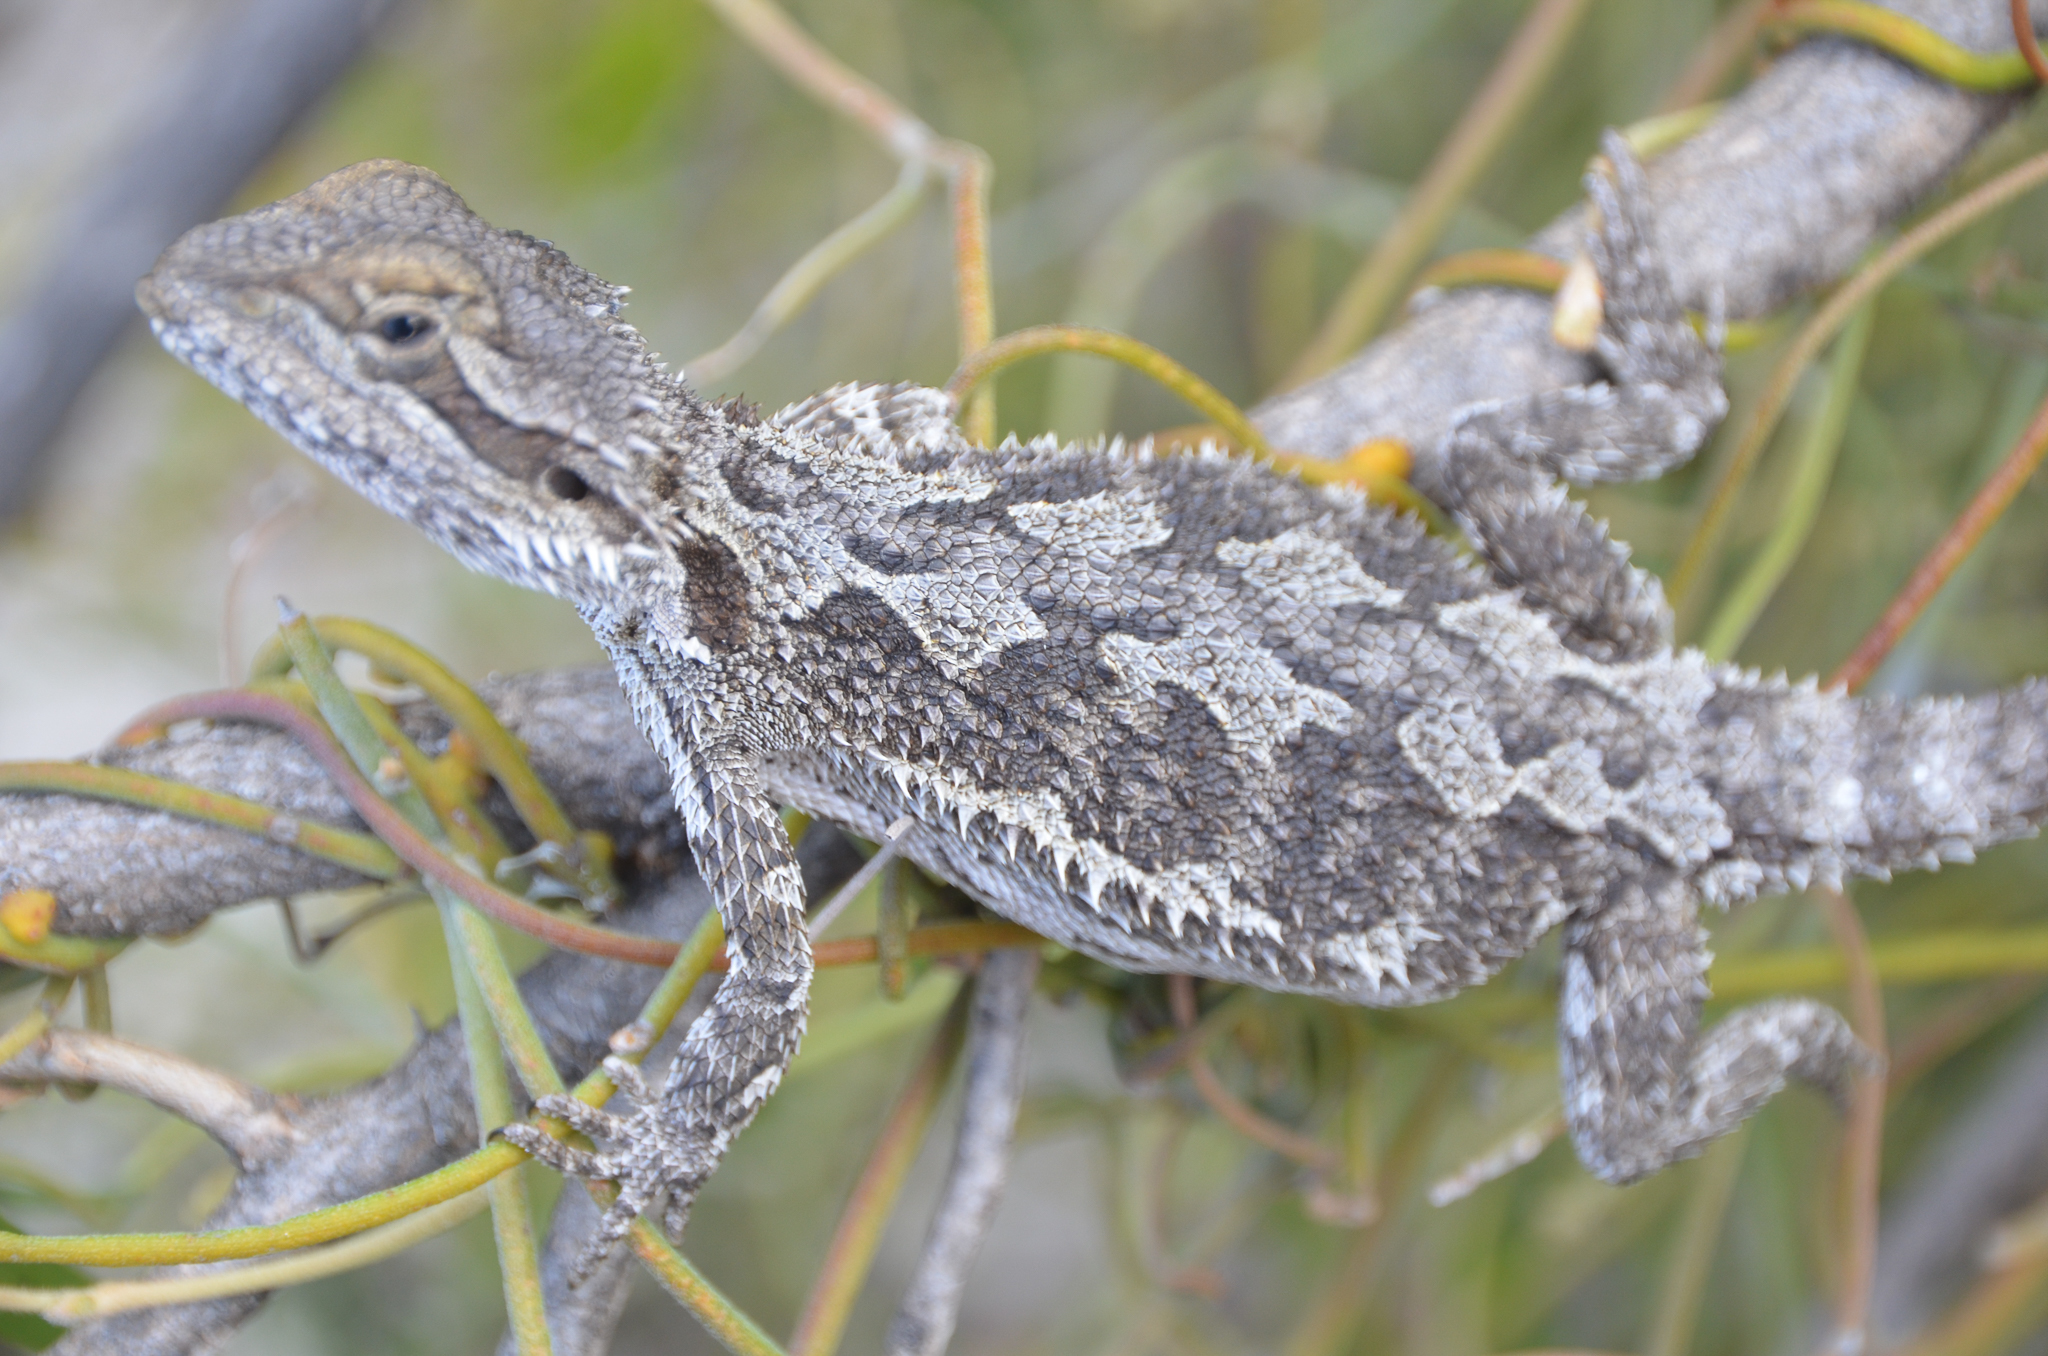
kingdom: Animalia
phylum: Chordata
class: Squamata
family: Agamidae
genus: Pogona
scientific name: Pogona minor
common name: Dwarf bearded dragon
